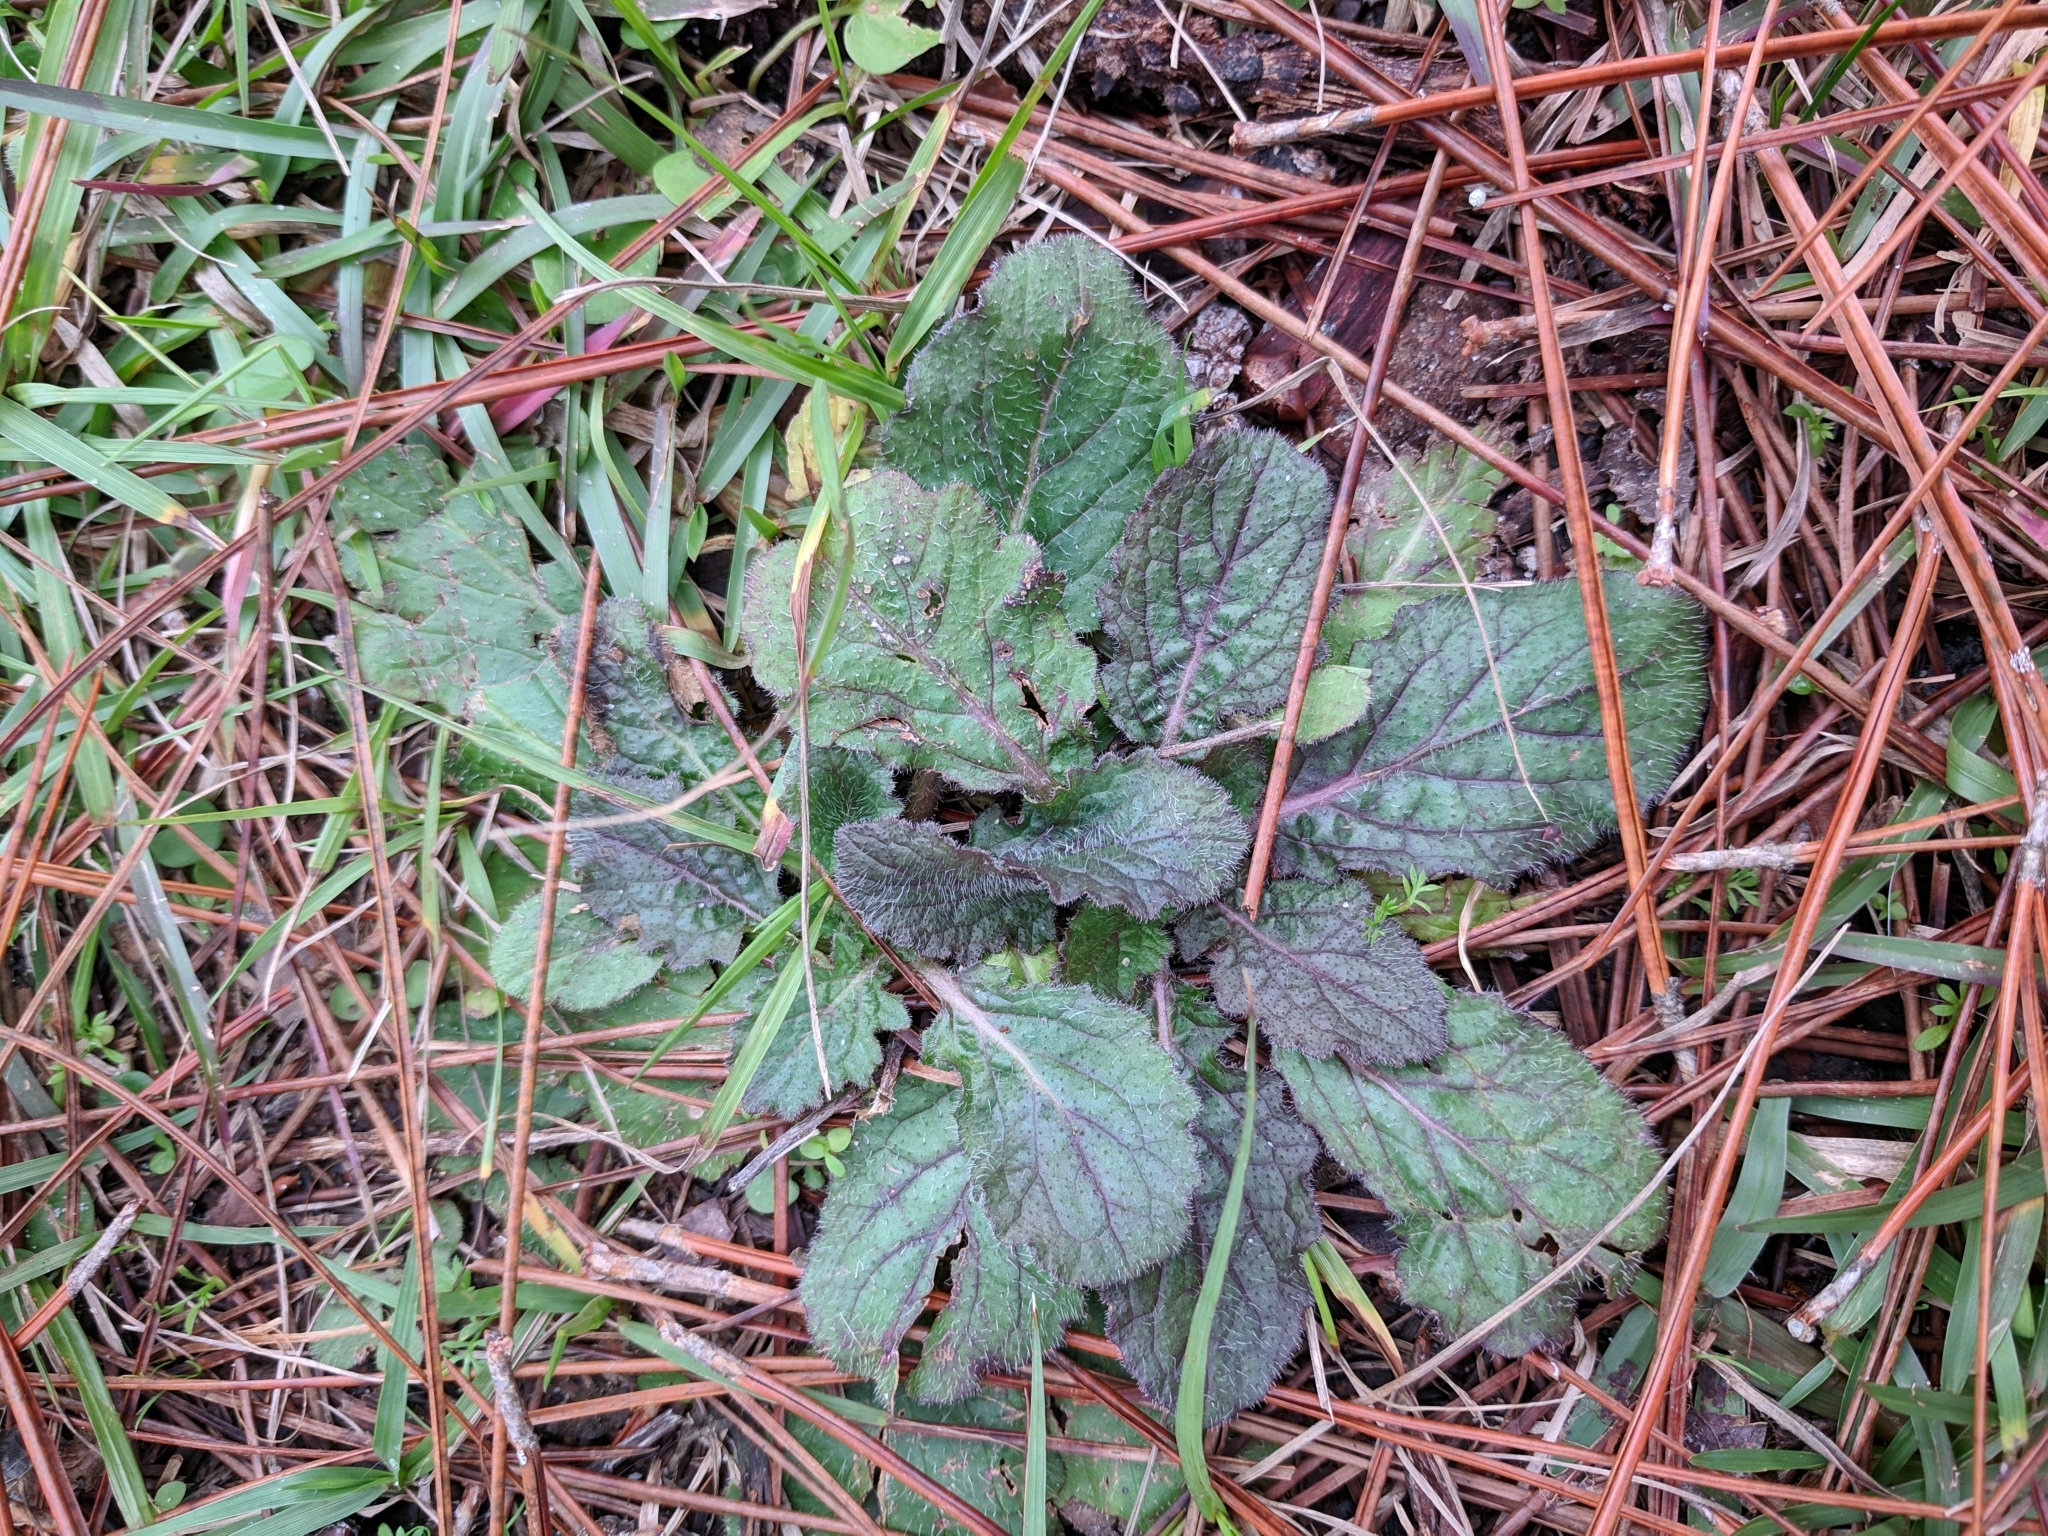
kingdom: Plantae
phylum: Tracheophyta
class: Magnoliopsida
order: Lamiales
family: Lamiaceae
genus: Salvia
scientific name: Salvia lyrata
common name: Cancerweed
